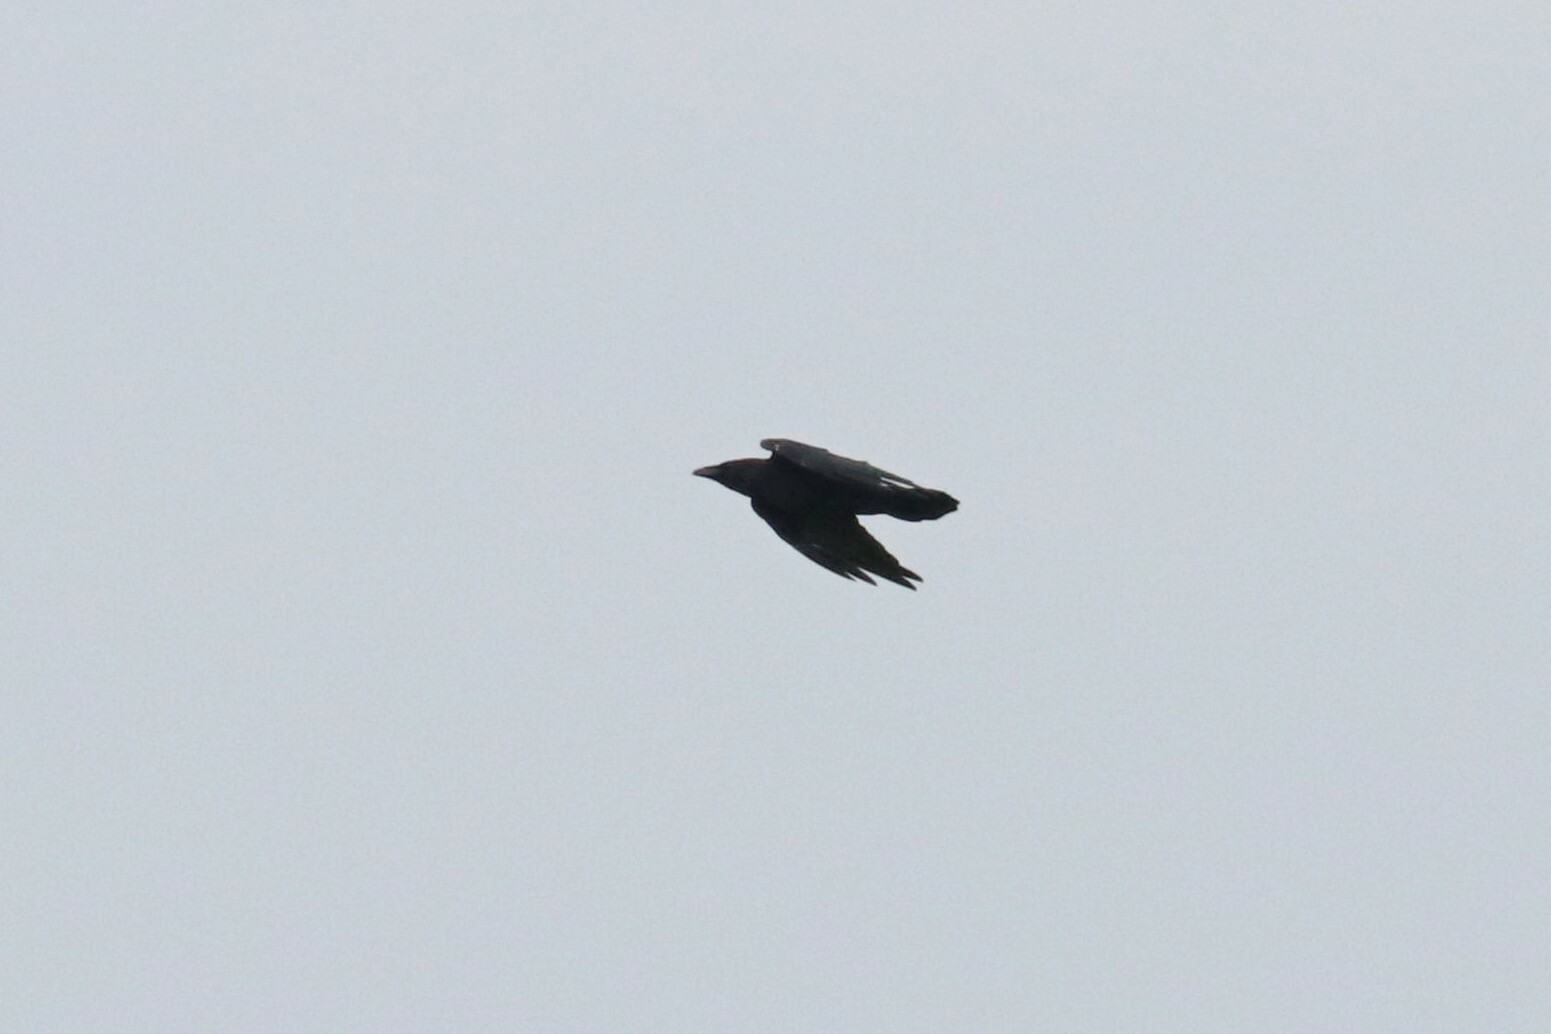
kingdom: Animalia
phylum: Chordata
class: Aves
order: Passeriformes
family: Corvidae
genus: Corvus
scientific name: Corvus corax
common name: Common raven
